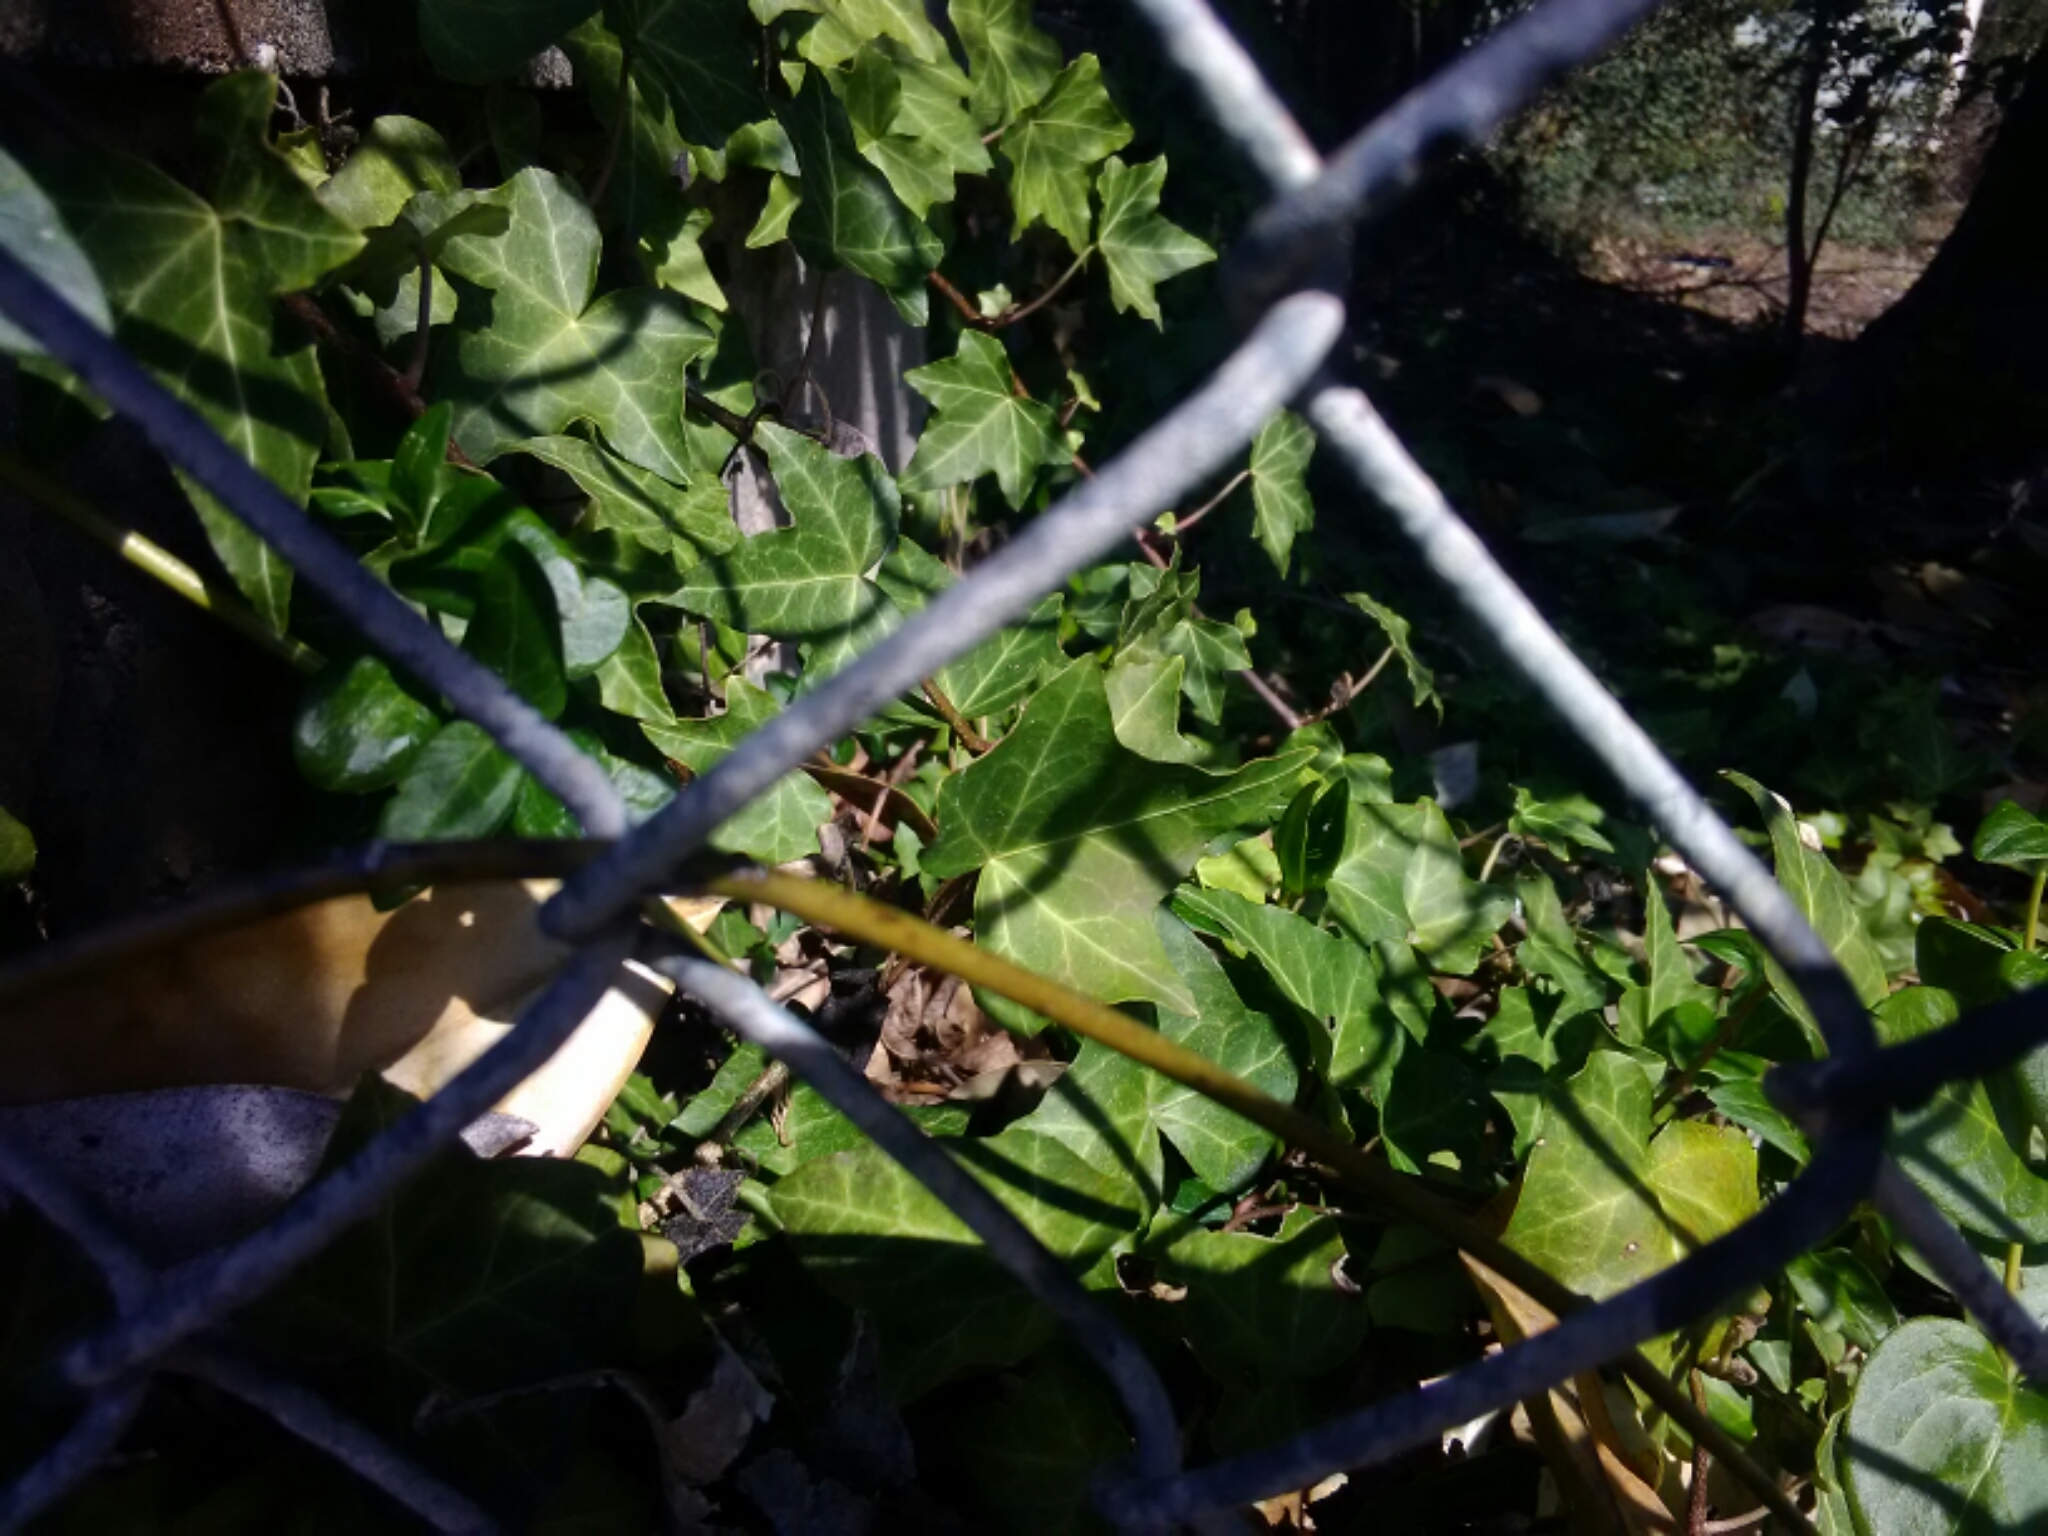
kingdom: Plantae
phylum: Tracheophyta
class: Magnoliopsida
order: Apiales
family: Araliaceae
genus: Hedera
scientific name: Hedera helix
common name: Ivy
